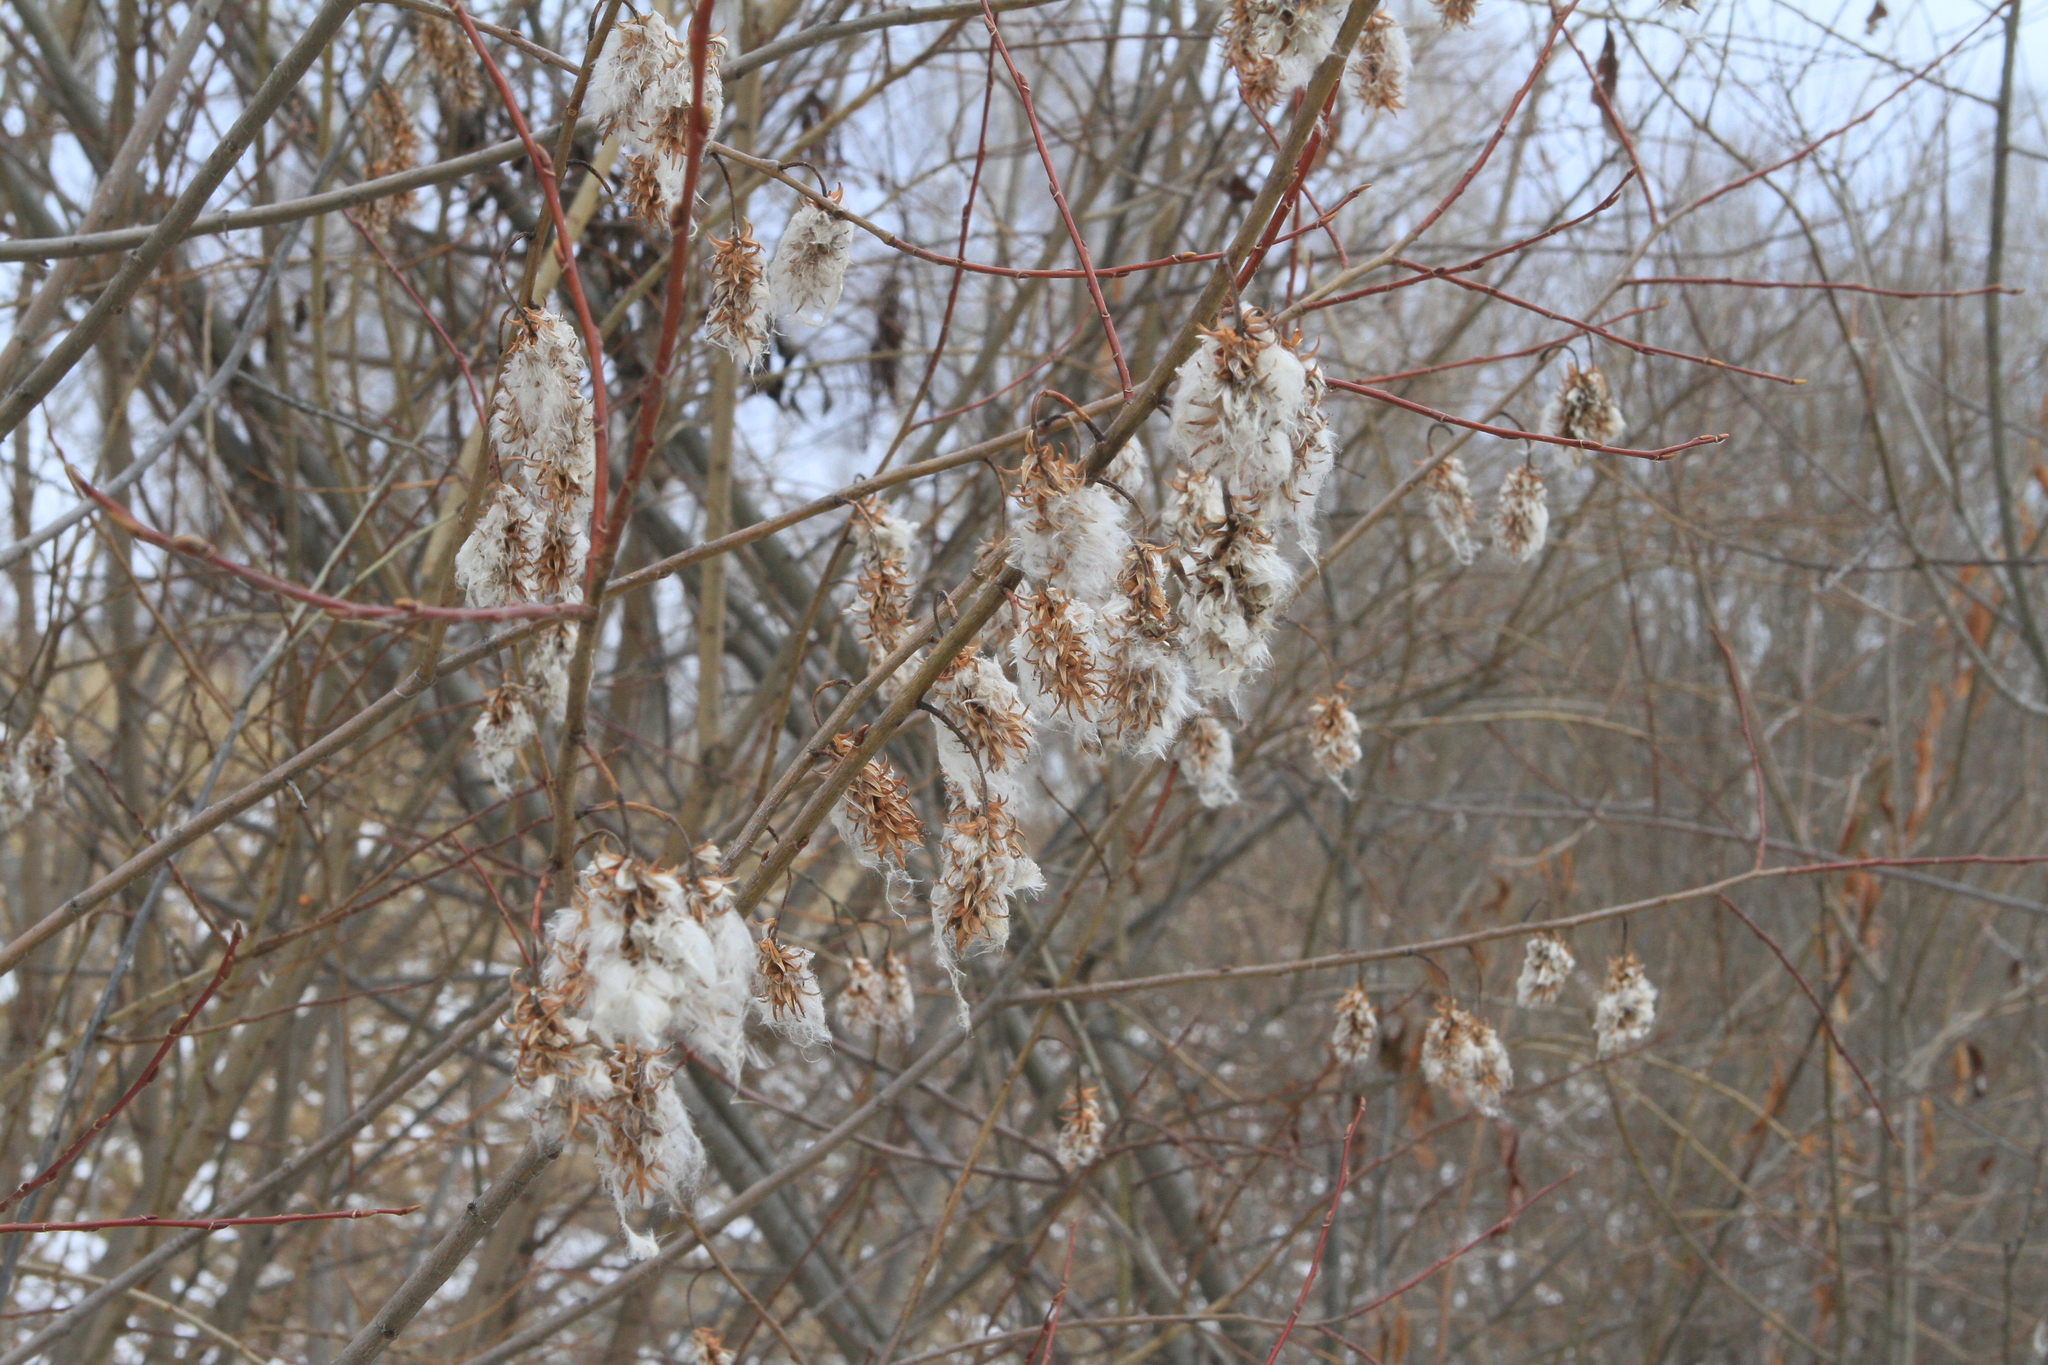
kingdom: Plantae
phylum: Tracheophyta
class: Magnoliopsida
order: Malpighiales
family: Salicaceae
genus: Salix
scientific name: Salix pentandra
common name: Bay willow
